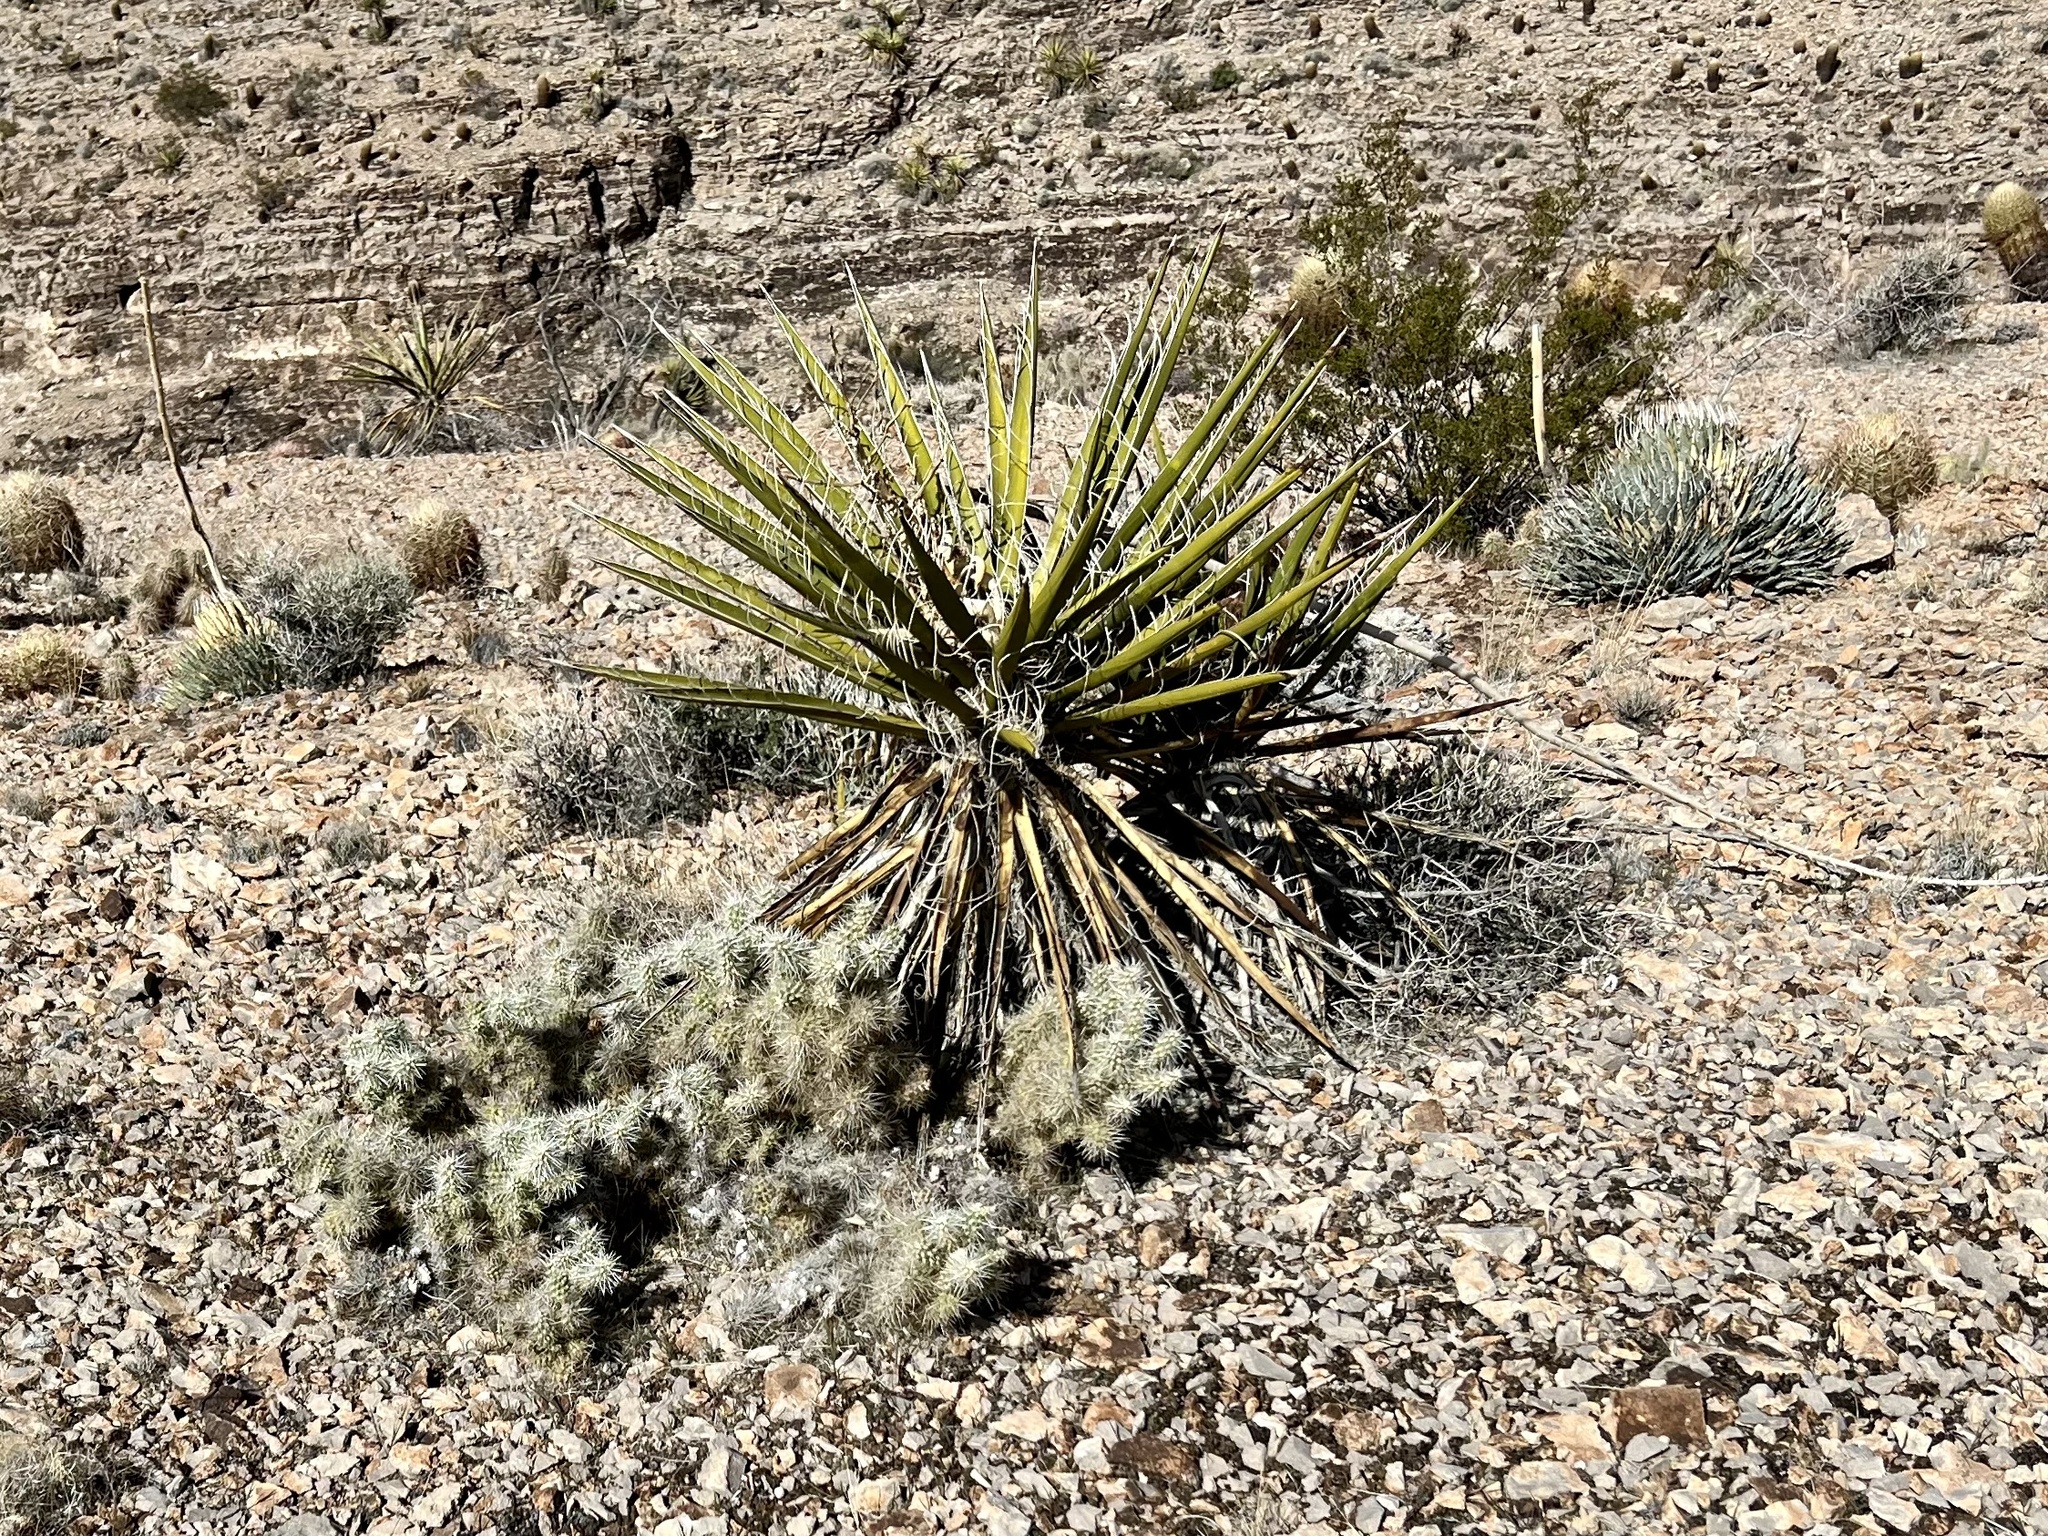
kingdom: Plantae
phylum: Tracheophyta
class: Liliopsida
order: Asparagales
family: Asparagaceae
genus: Yucca
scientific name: Yucca schidigera
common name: Mojave yucca
